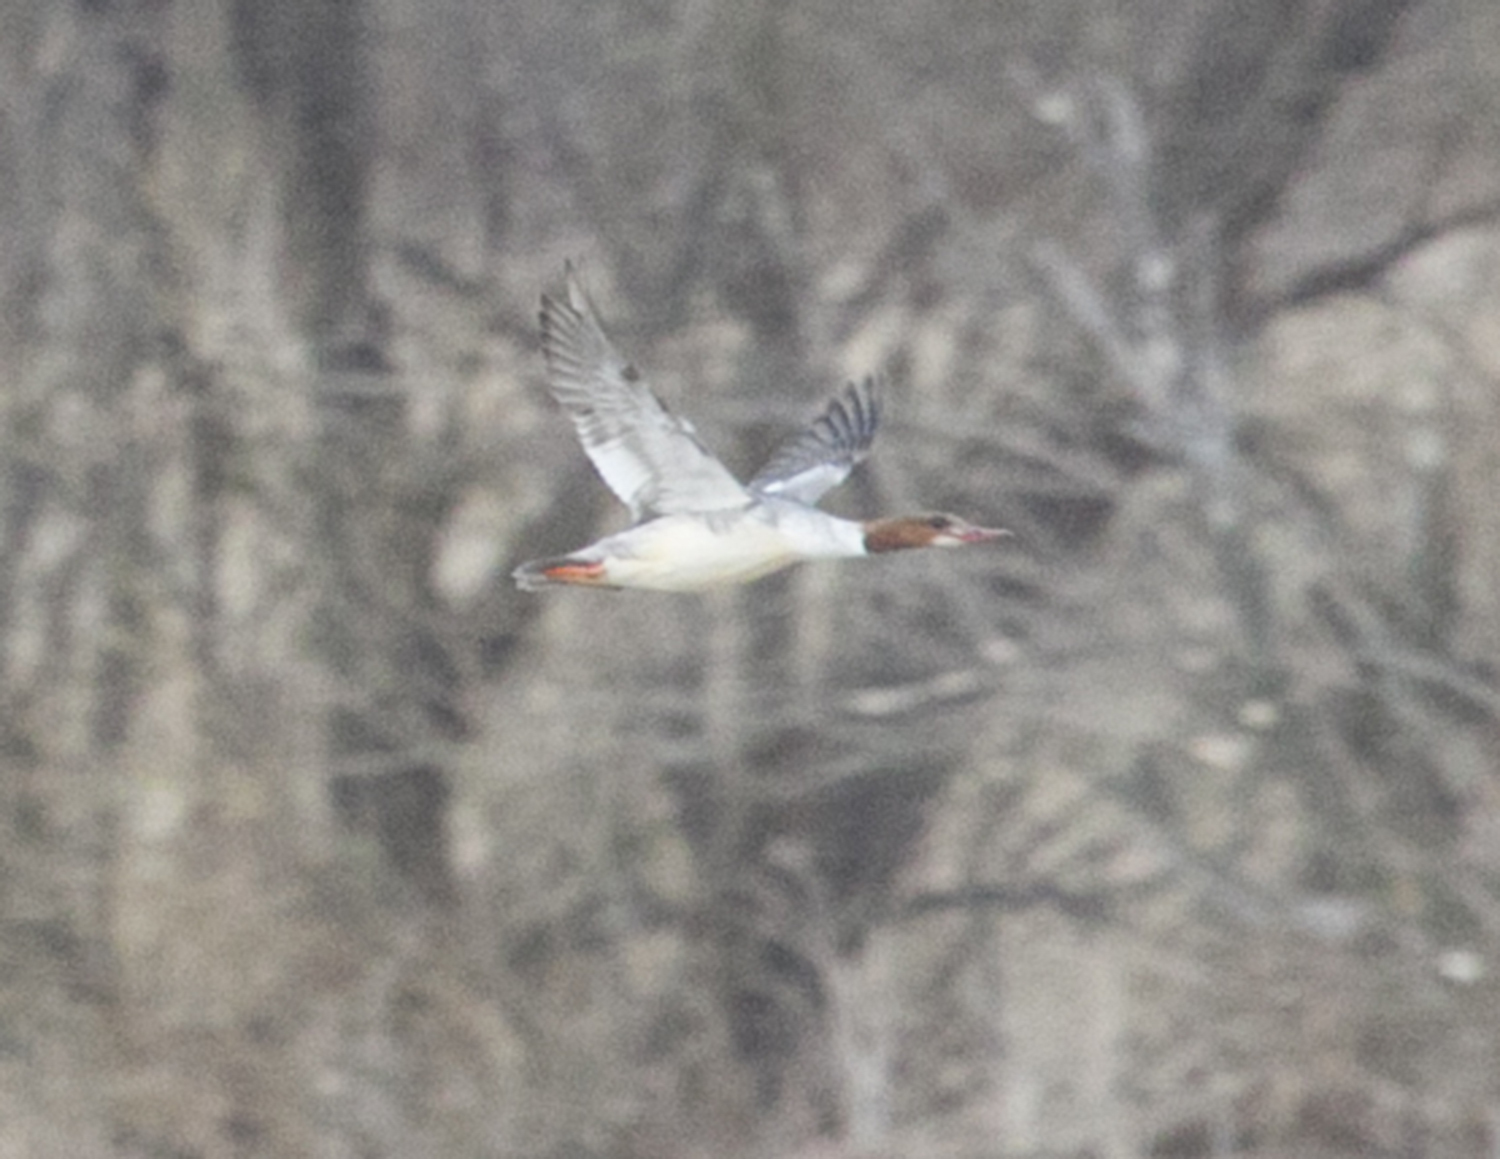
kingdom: Animalia
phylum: Chordata
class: Aves
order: Anseriformes
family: Anatidae
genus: Mergus
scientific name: Mergus merganser
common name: Common merganser
